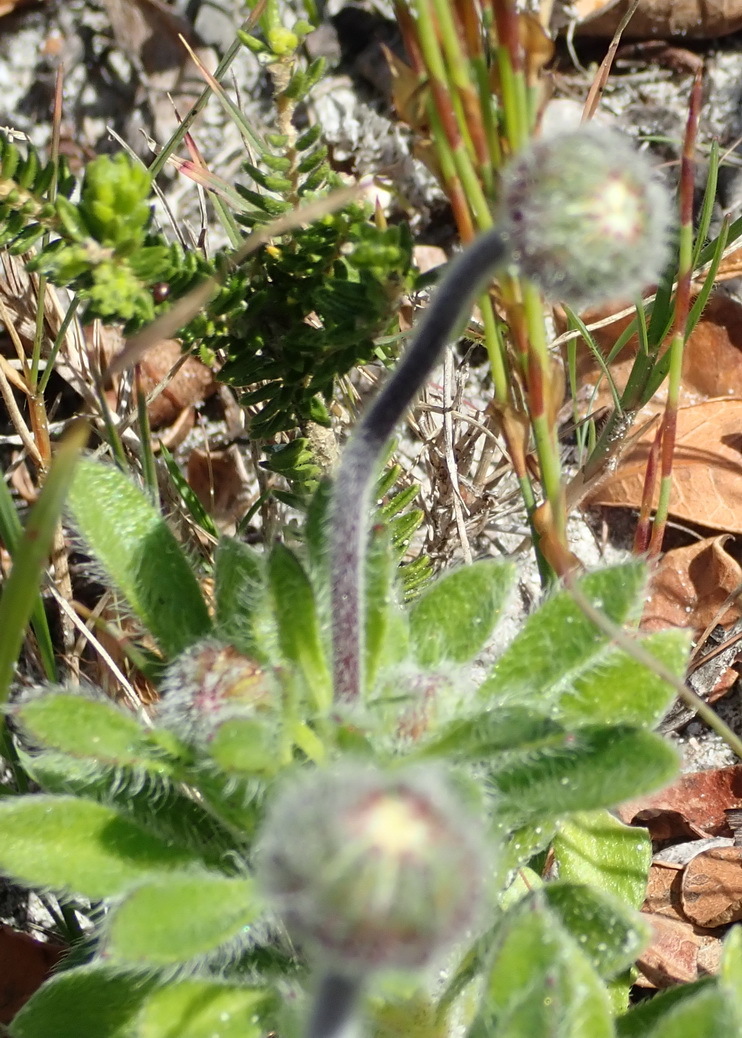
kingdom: Plantae
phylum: Tracheophyta
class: Magnoliopsida
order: Asterales
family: Asteraceae
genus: Felicia
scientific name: Felicia amoena
